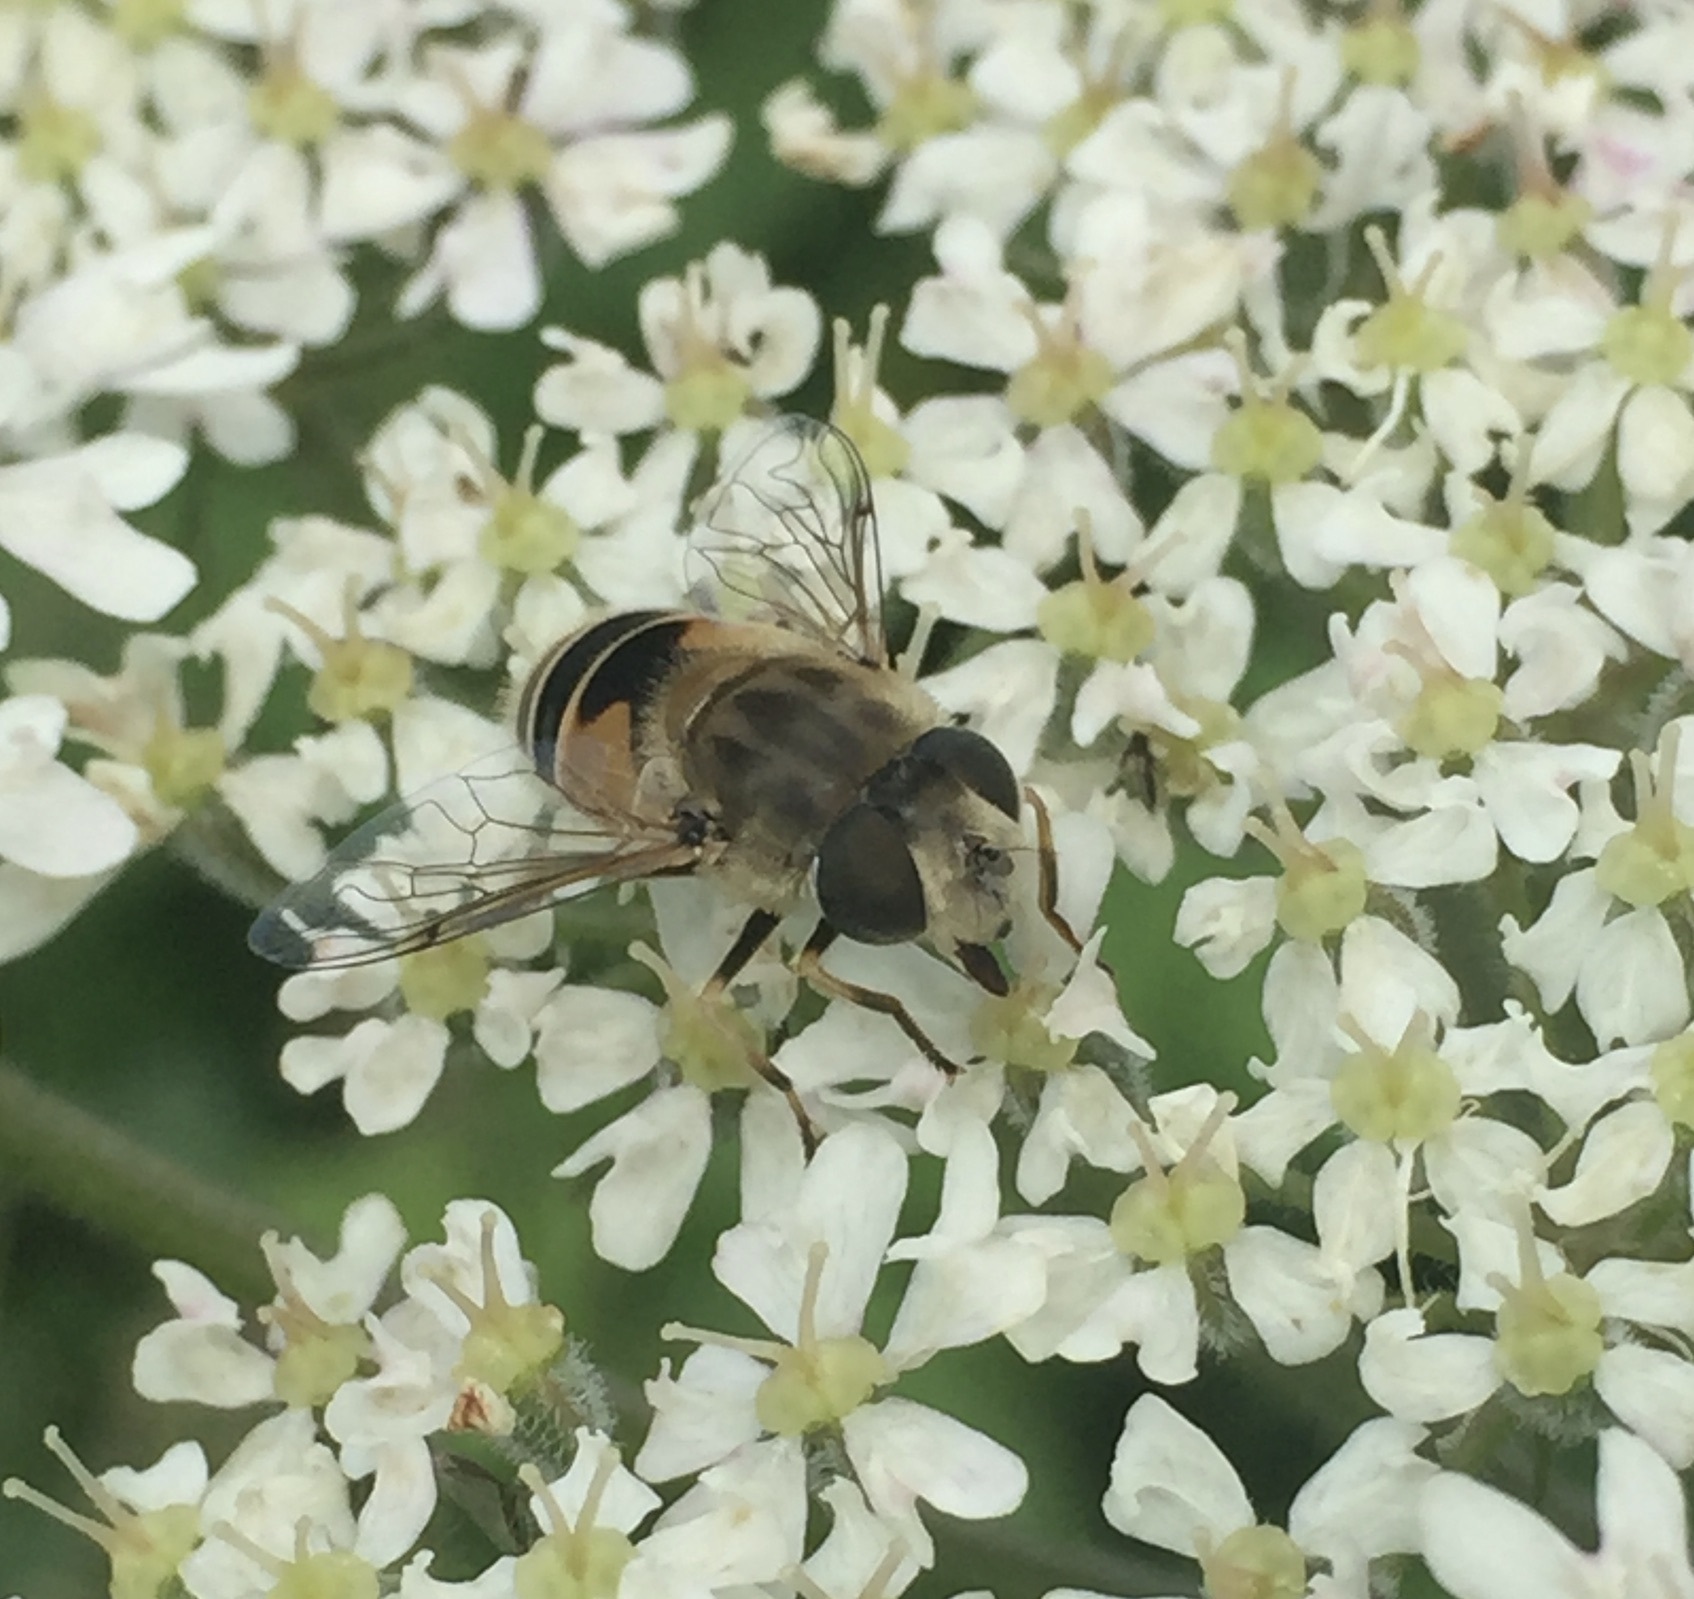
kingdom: Animalia
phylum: Arthropoda
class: Insecta
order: Diptera
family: Syrphidae
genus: Eristalis
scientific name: Eristalis arbustorum
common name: Hover fly
